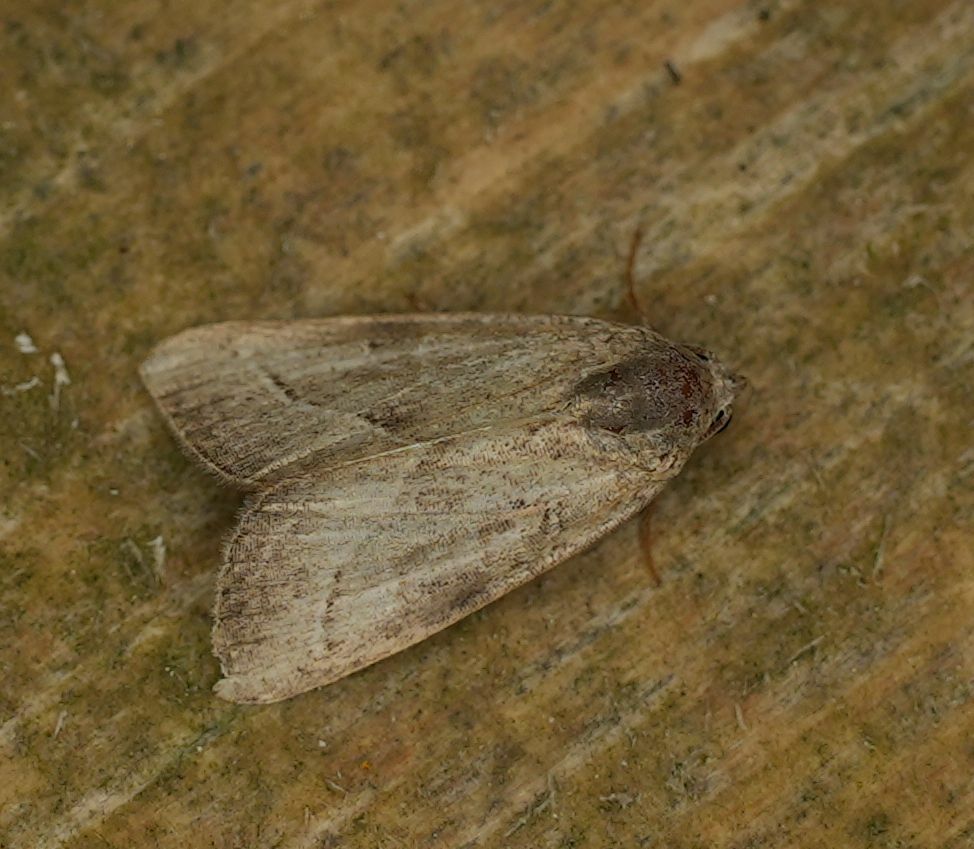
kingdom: Animalia
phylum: Arthropoda
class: Insecta
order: Lepidoptera
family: Noctuidae
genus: Galgula
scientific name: Galgula partita
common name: Wedgeling
